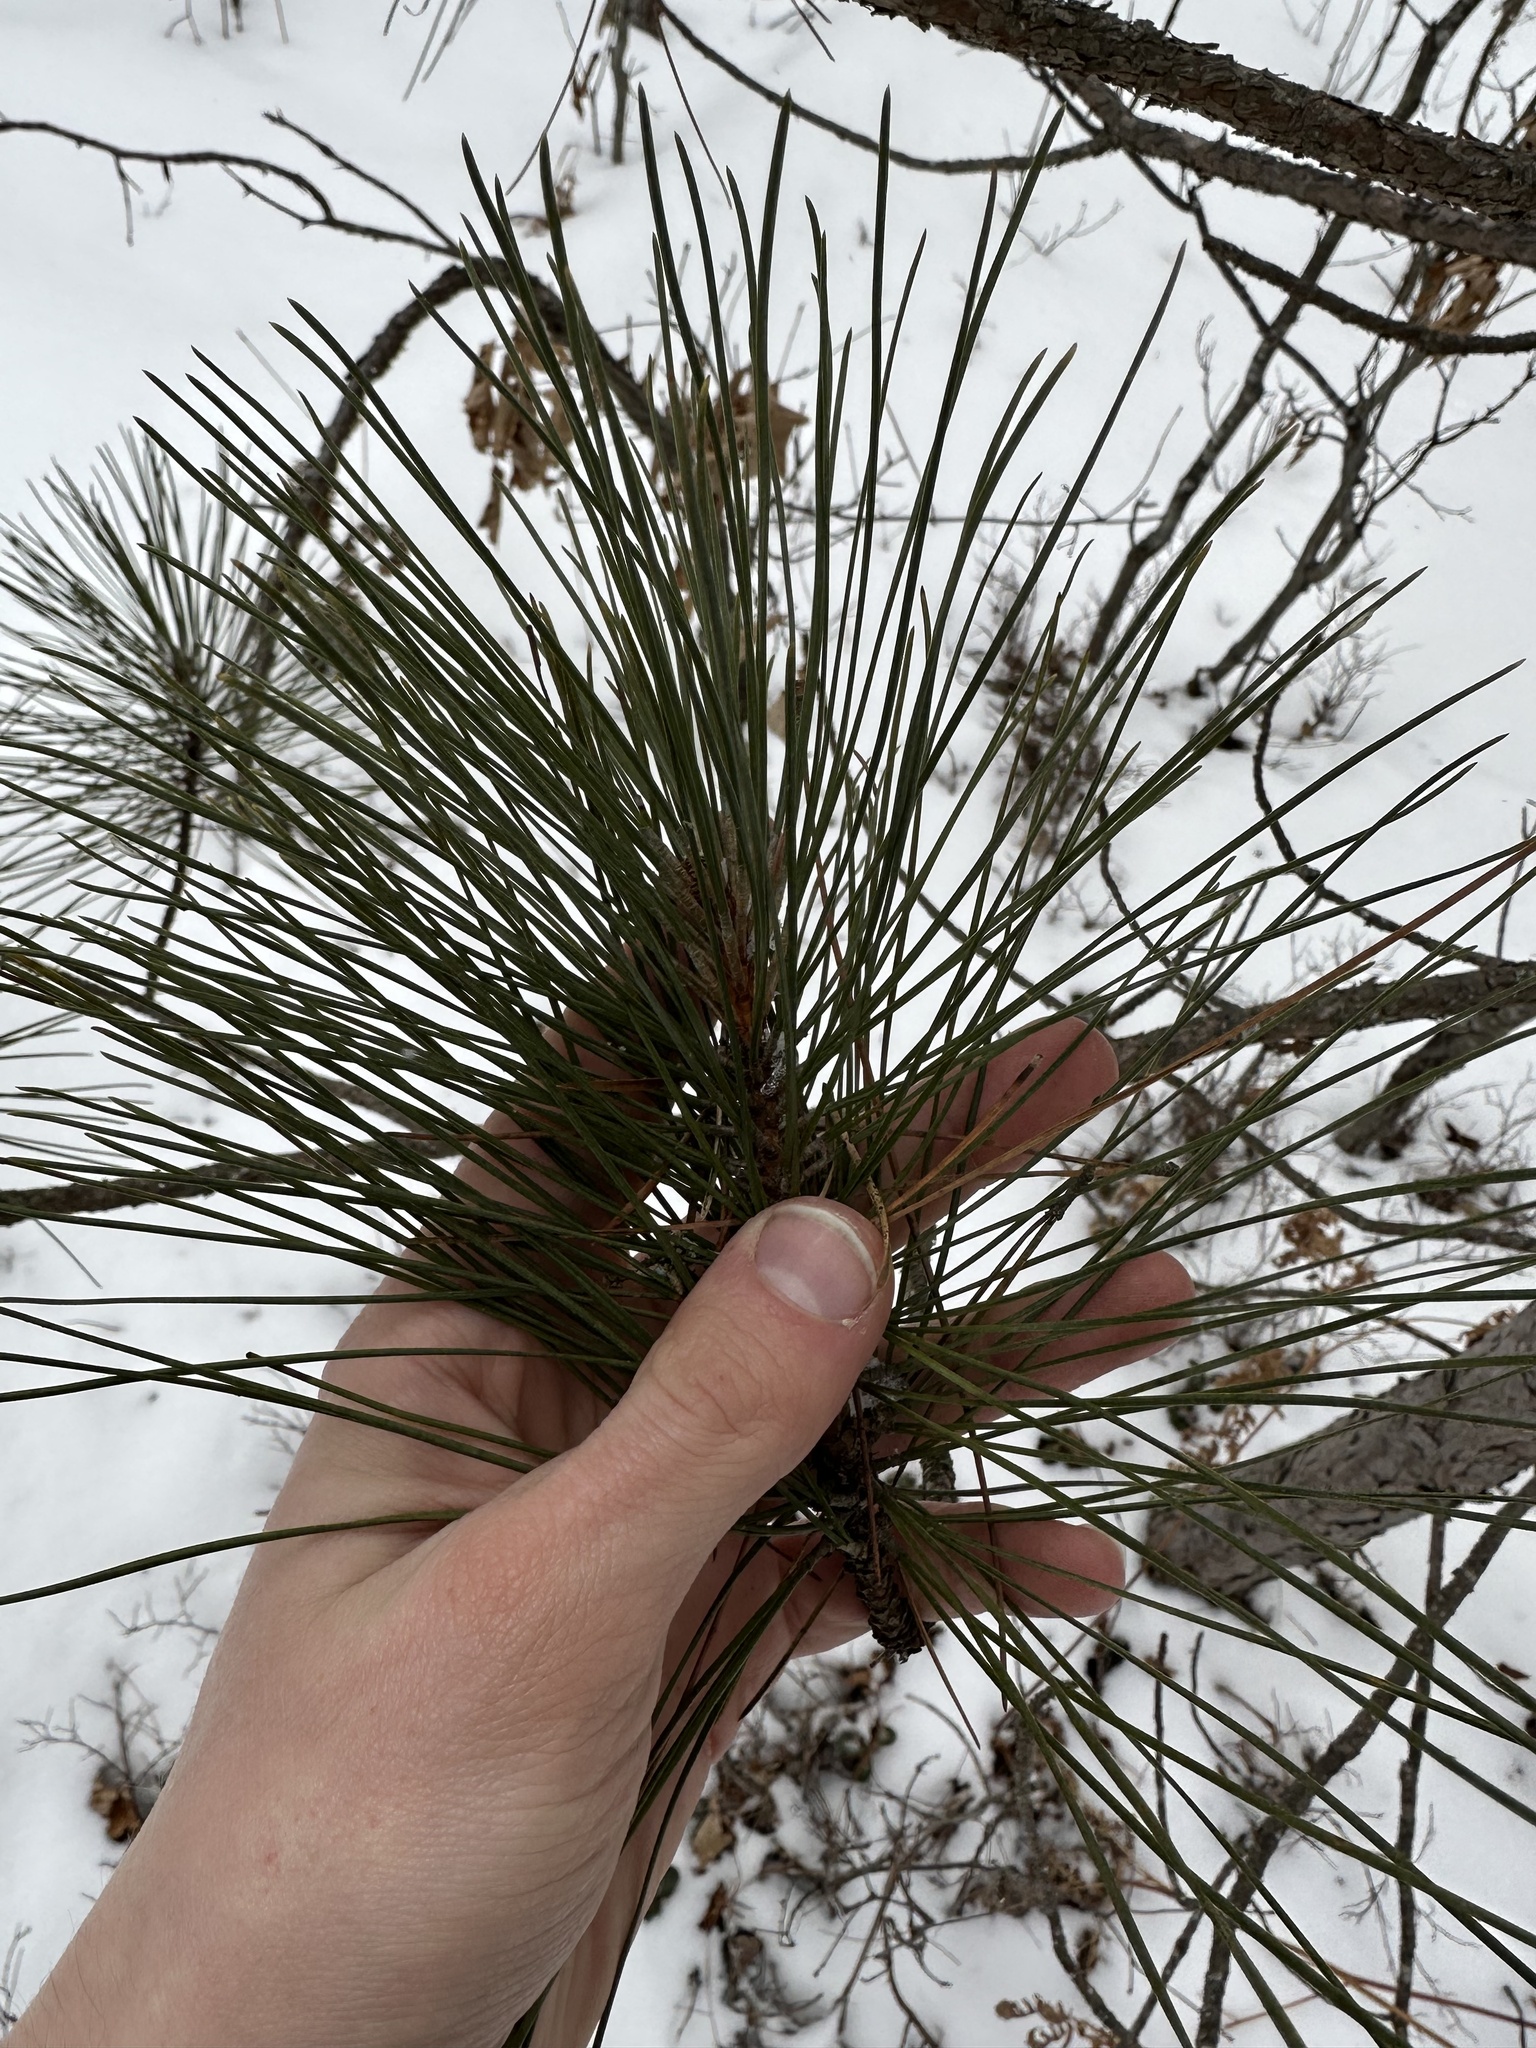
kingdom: Plantae
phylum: Tracheophyta
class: Pinopsida
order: Pinales
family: Pinaceae
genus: Pinus
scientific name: Pinus resinosa
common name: Norway pine
